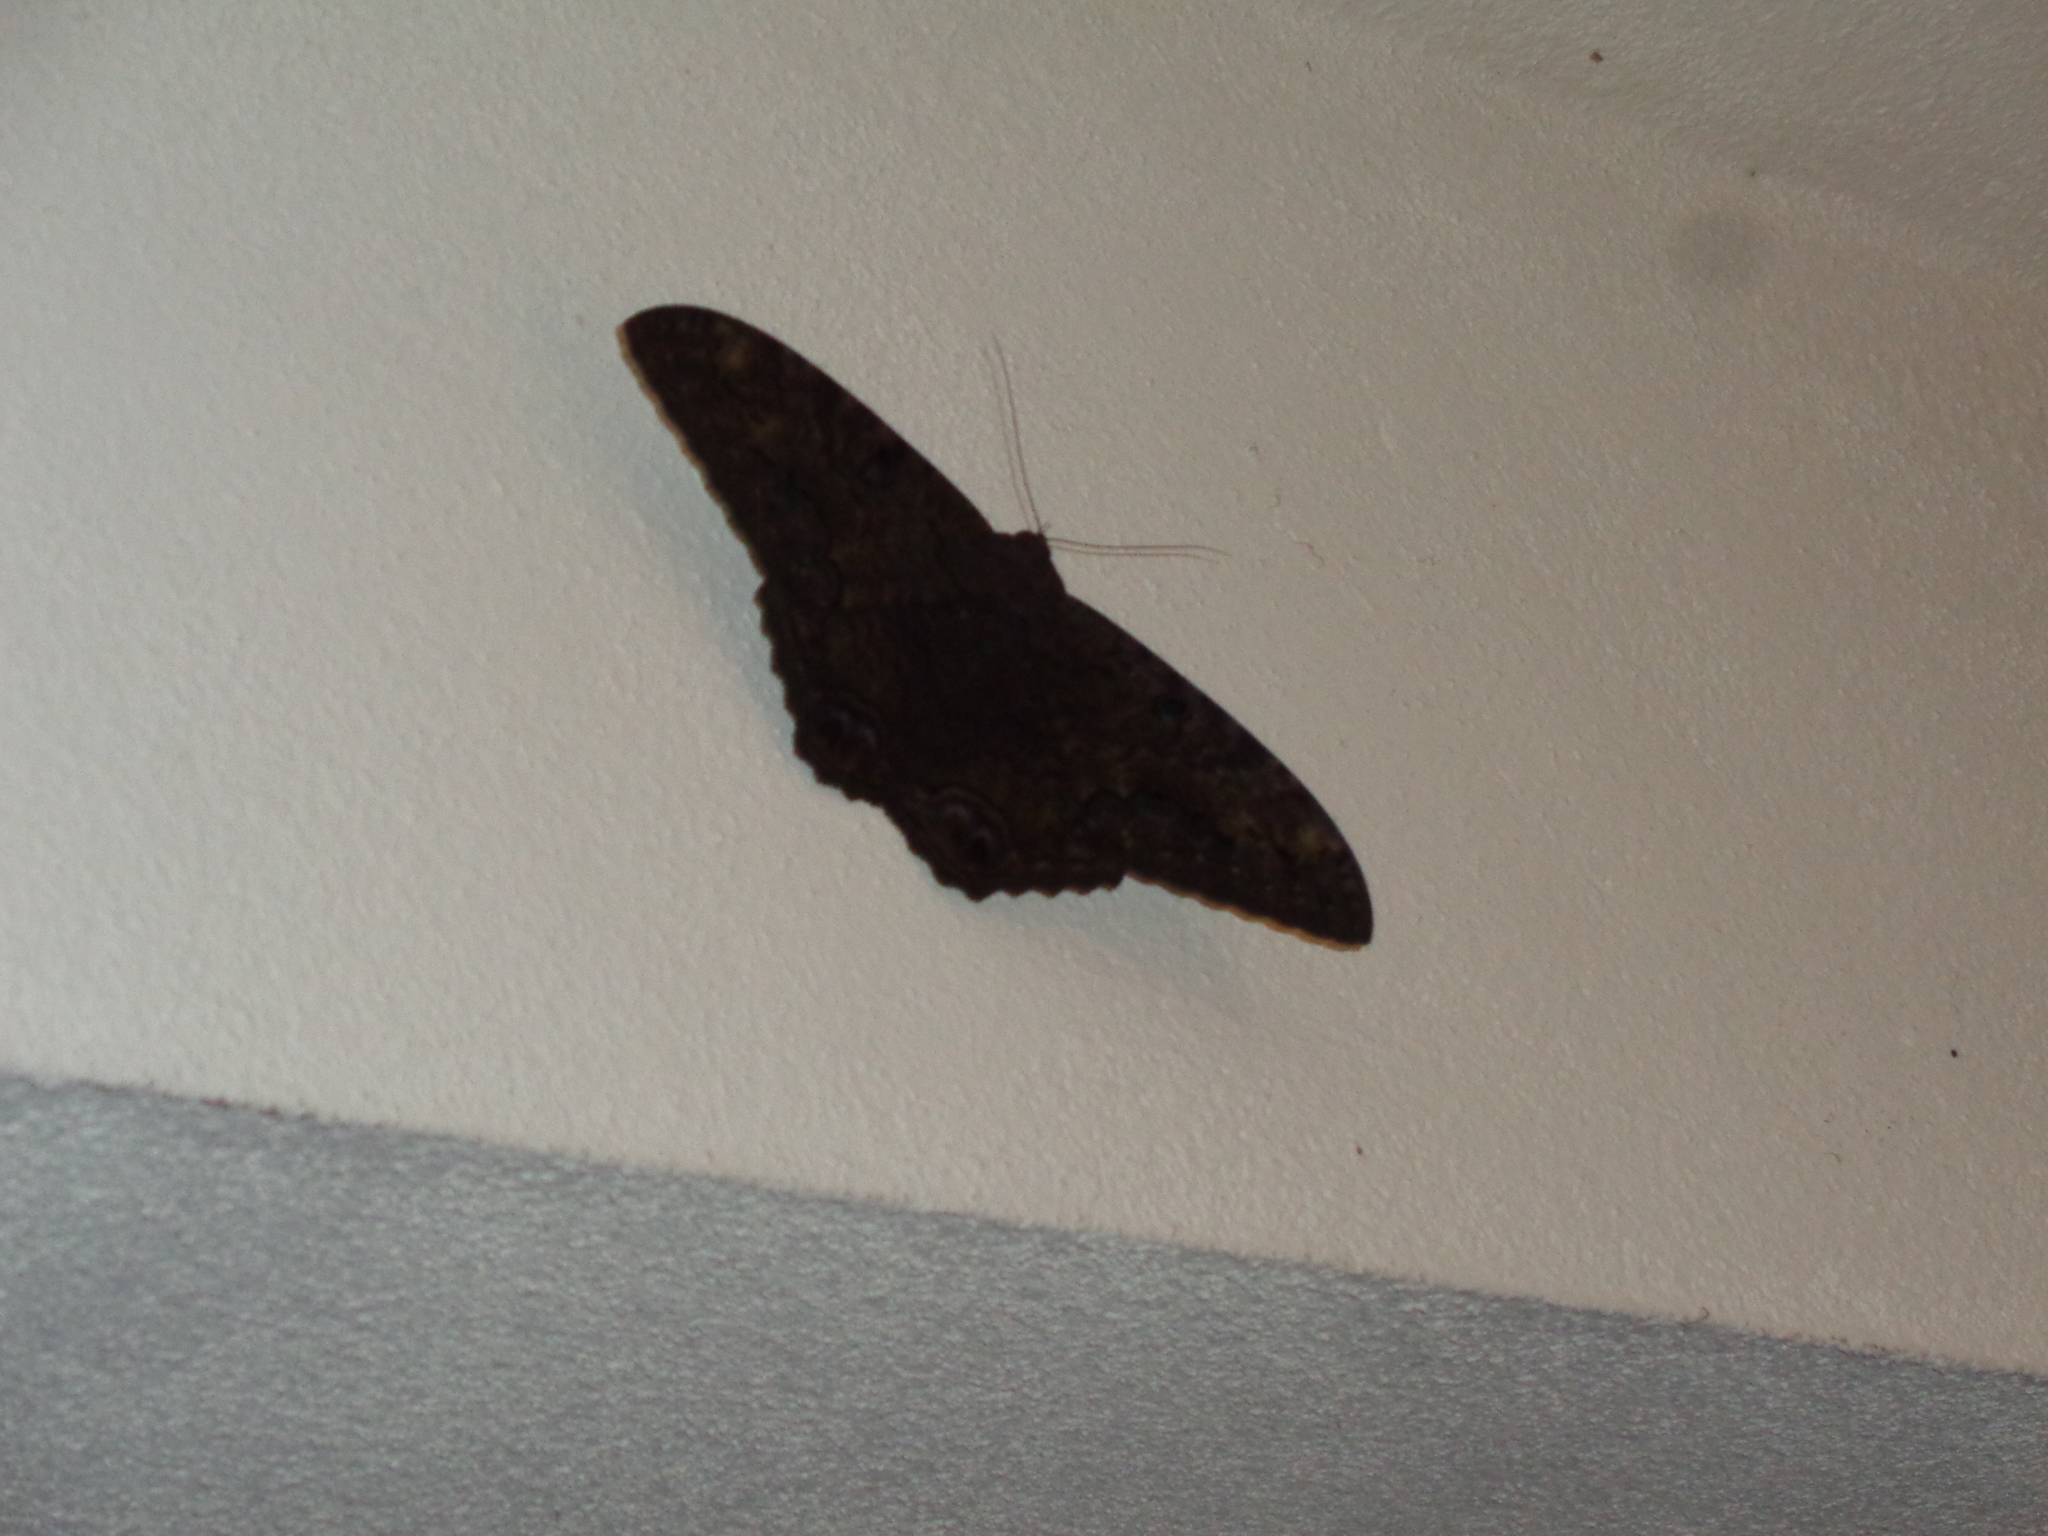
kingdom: Animalia
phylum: Arthropoda
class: Insecta
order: Lepidoptera
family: Erebidae
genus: Ascalapha
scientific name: Ascalapha odorata
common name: Black witch
